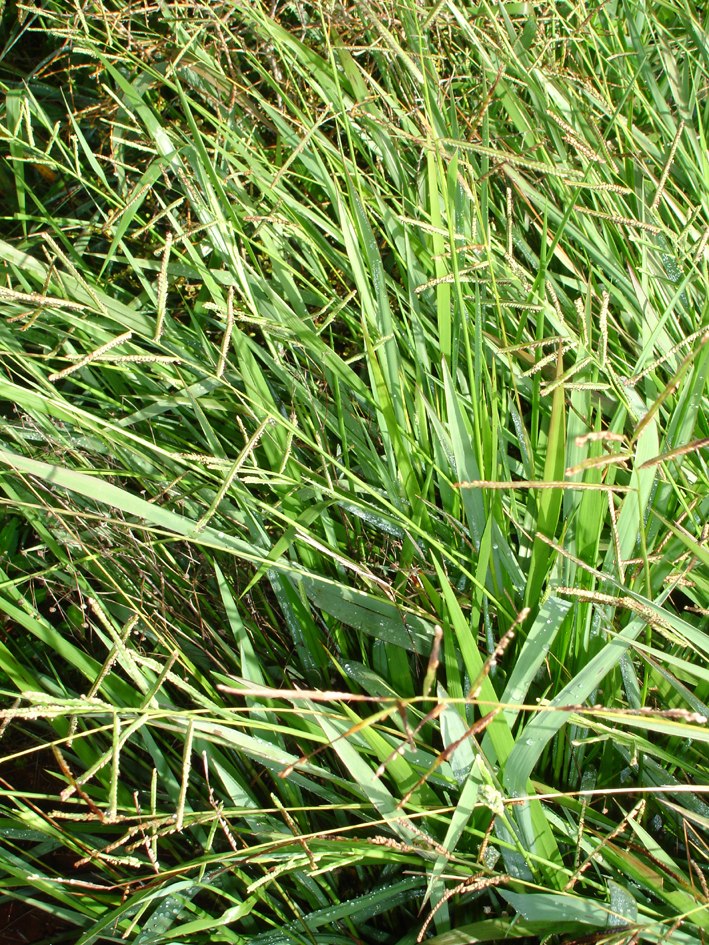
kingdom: Plantae
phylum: Tracheophyta
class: Liliopsida
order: Poales
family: Poaceae
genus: Paspalum
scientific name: Paspalum orbiculare
